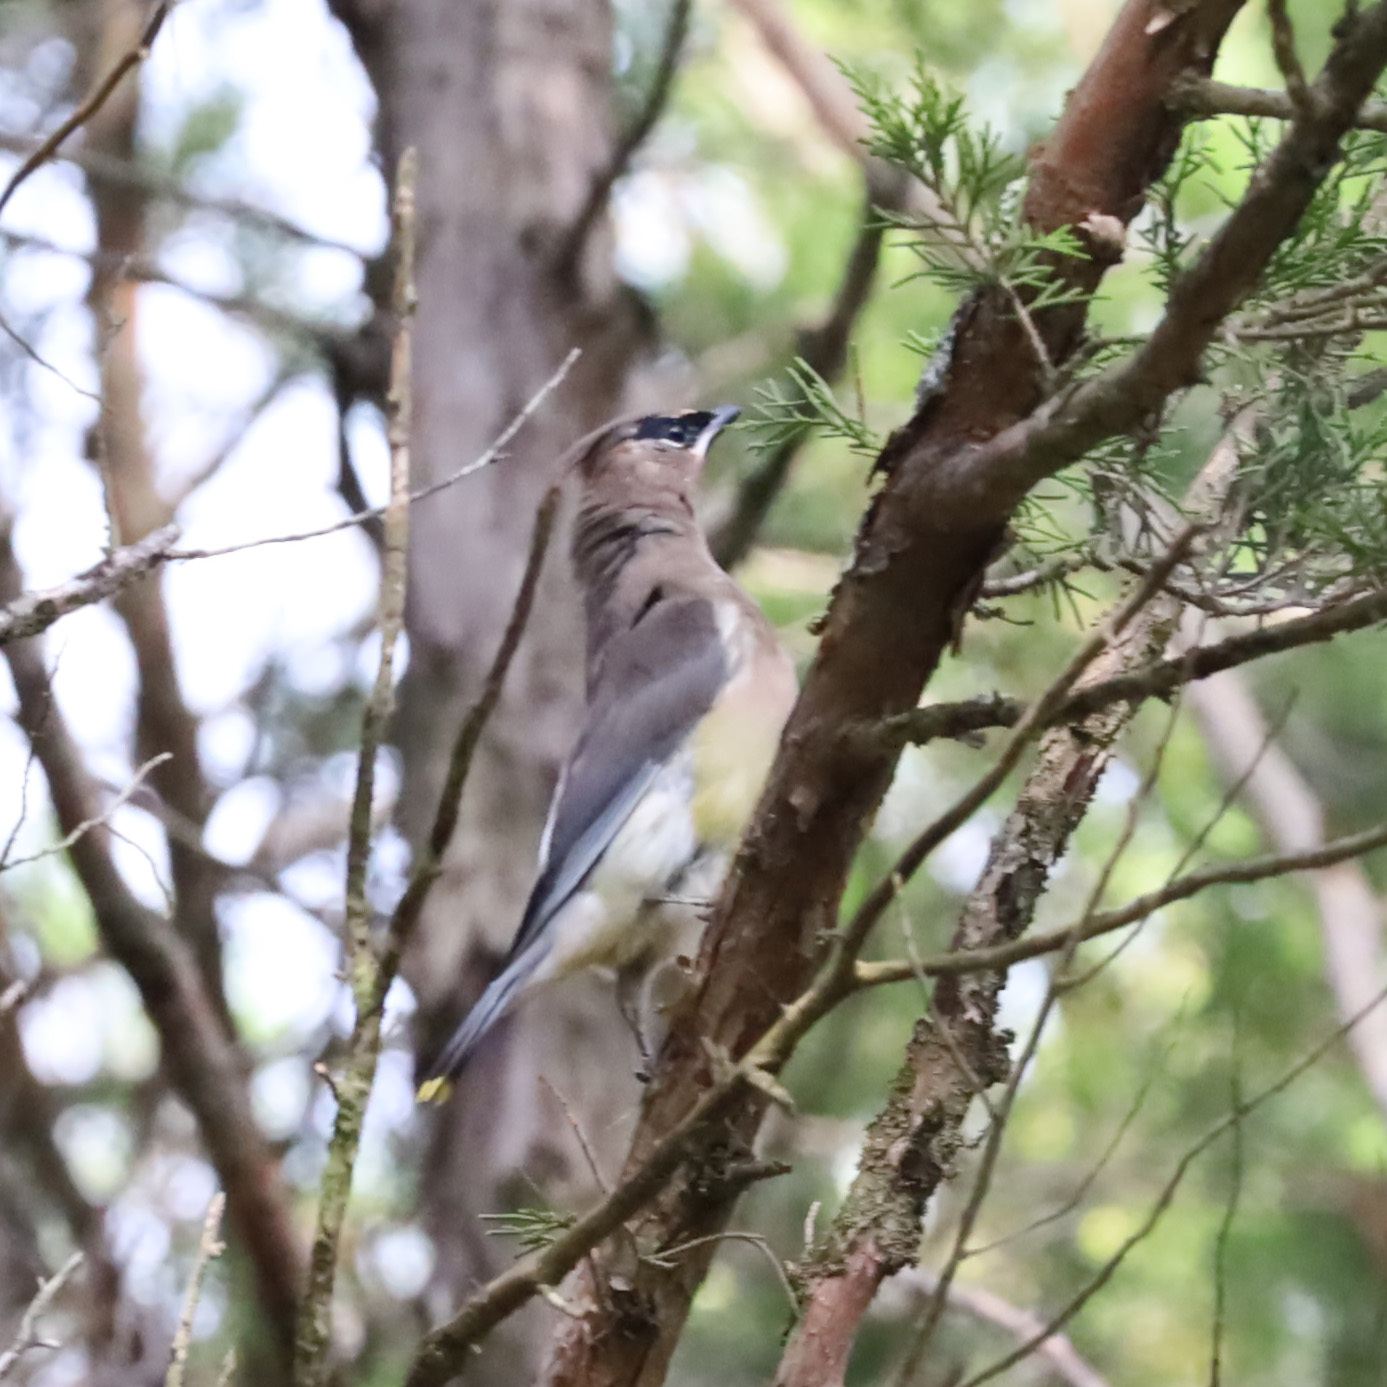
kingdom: Animalia
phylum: Chordata
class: Aves
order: Passeriformes
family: Bombycillidae
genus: Bombycilla
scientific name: Bombycilla cedrorum
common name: Cedar waxwing
